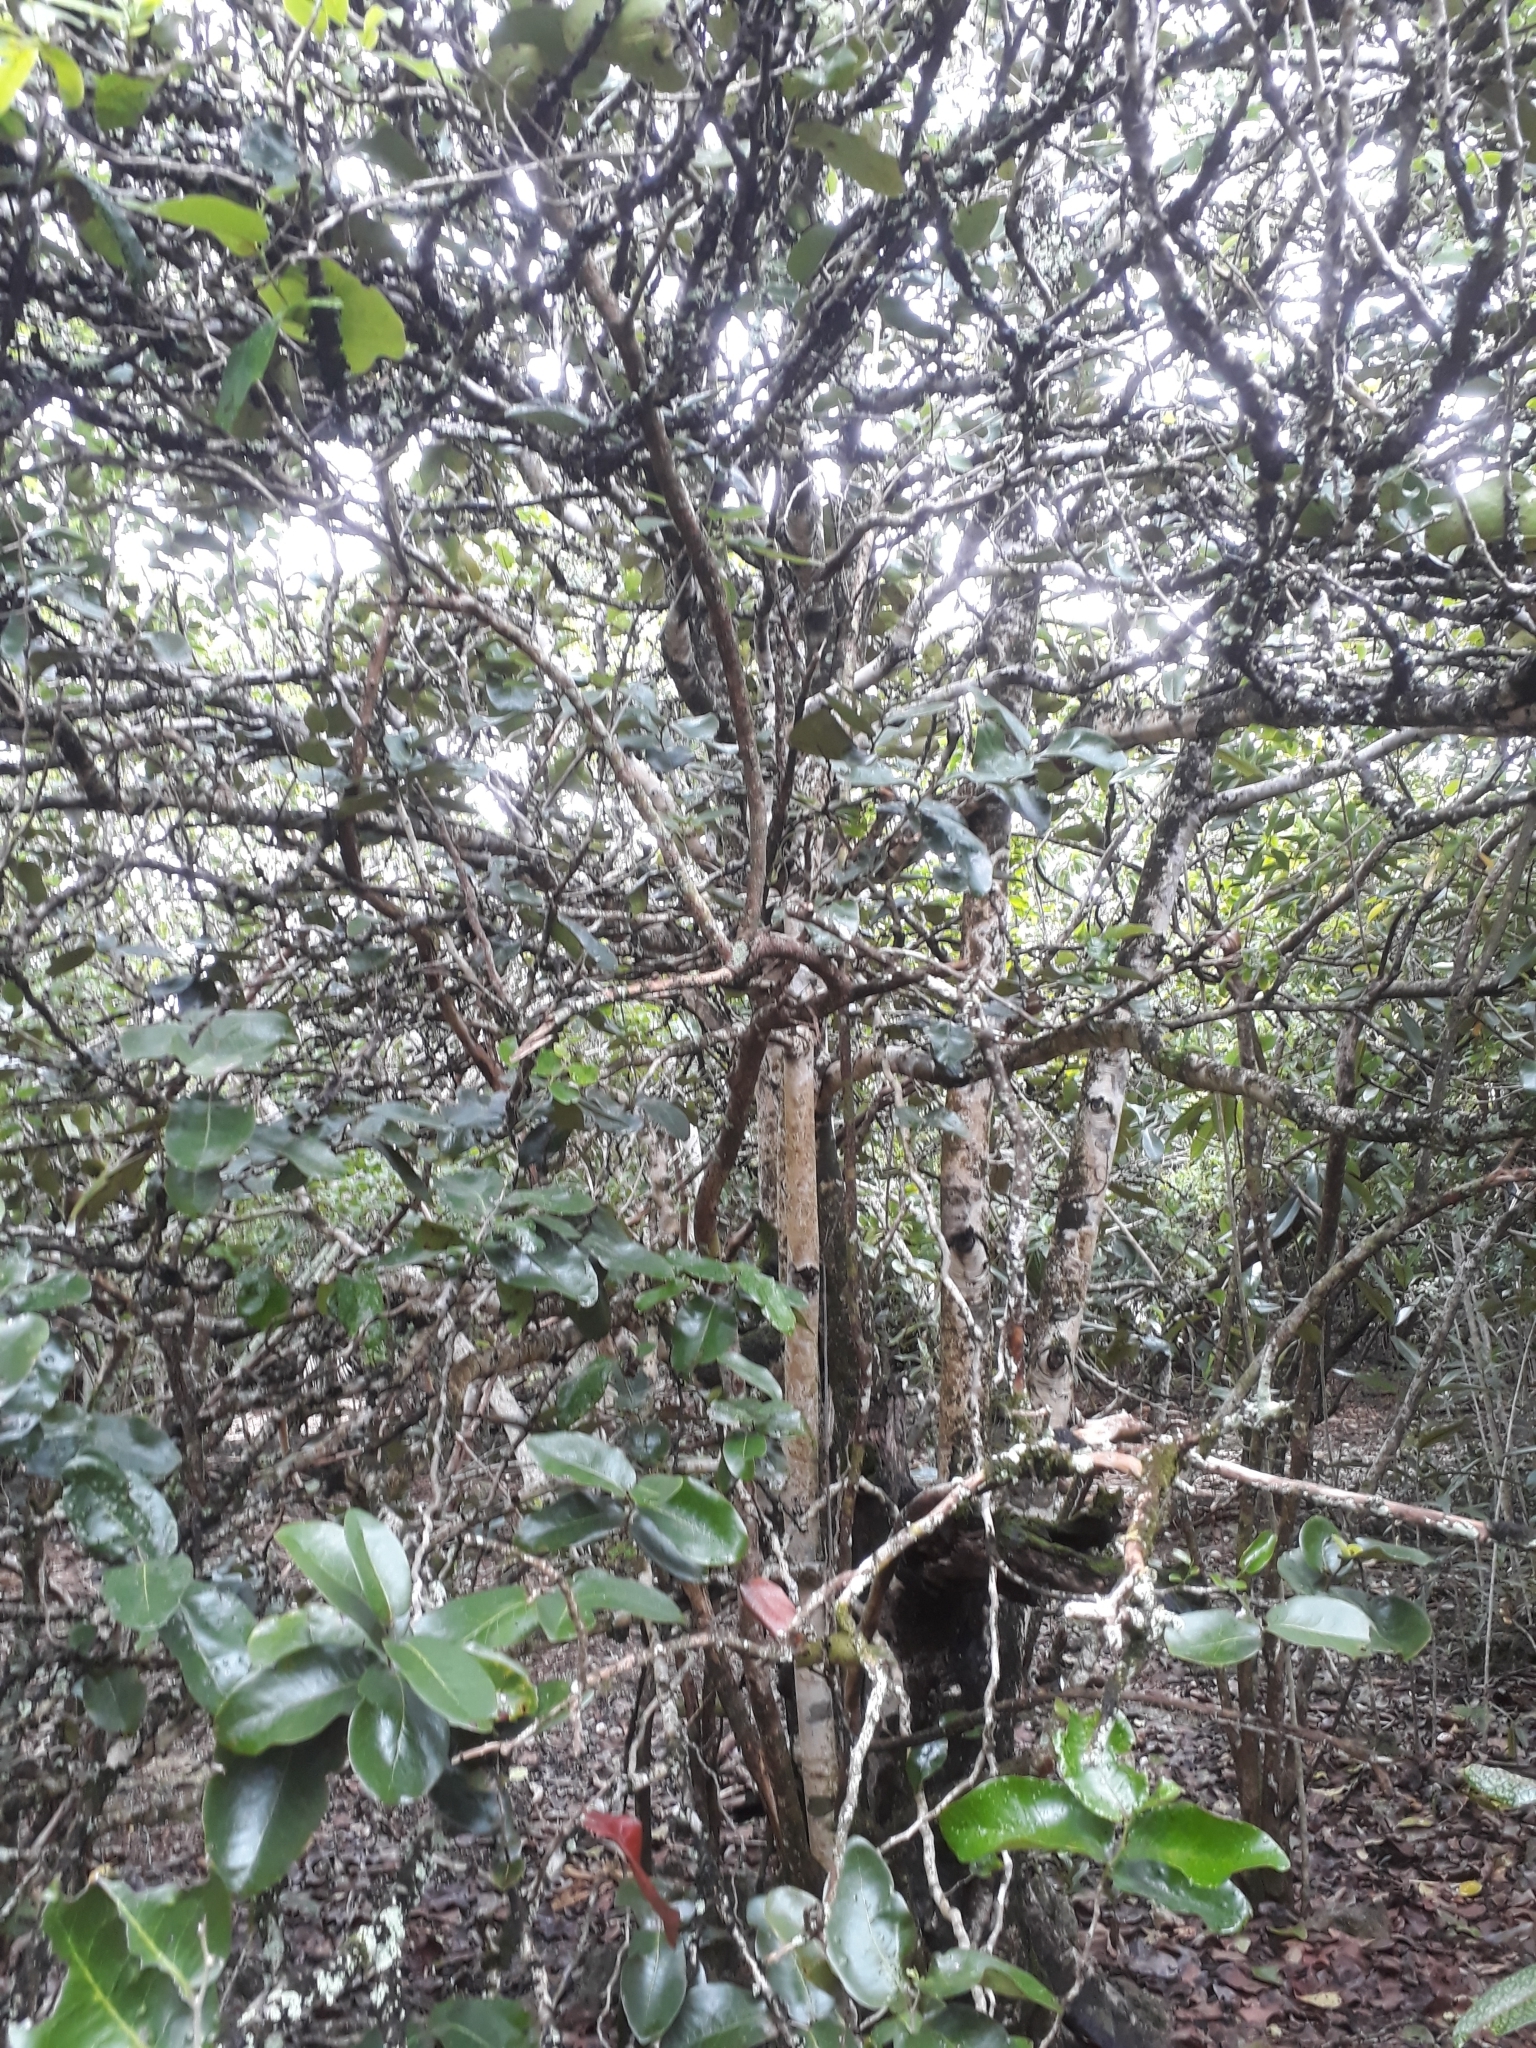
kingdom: Plantae
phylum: Tracheophyta
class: Magnoliopsida
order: Ericales
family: Ebenaceae
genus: Diospyros
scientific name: Diospyros egrettarum
